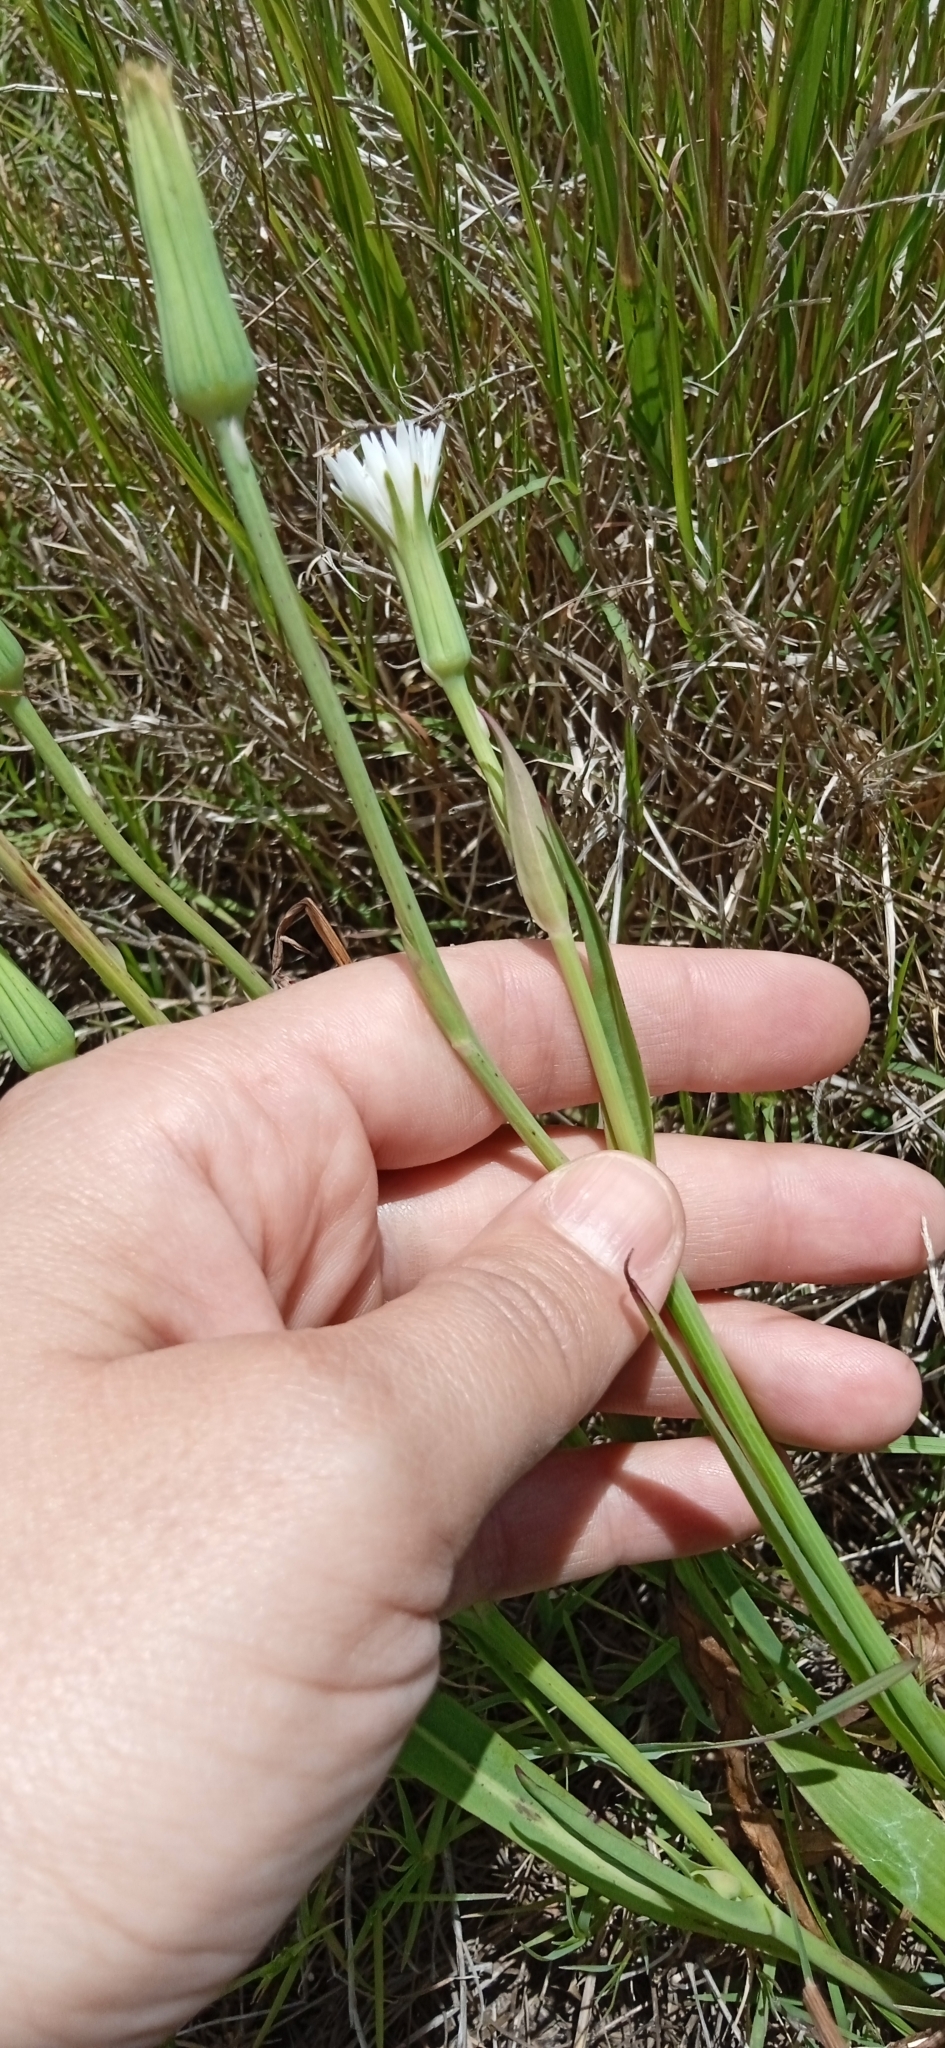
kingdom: Plantae
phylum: Tracheophyta
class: Magnoliopsida
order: Asterales
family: Asteraceae
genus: Picrosia
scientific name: Picrosia longifolia
